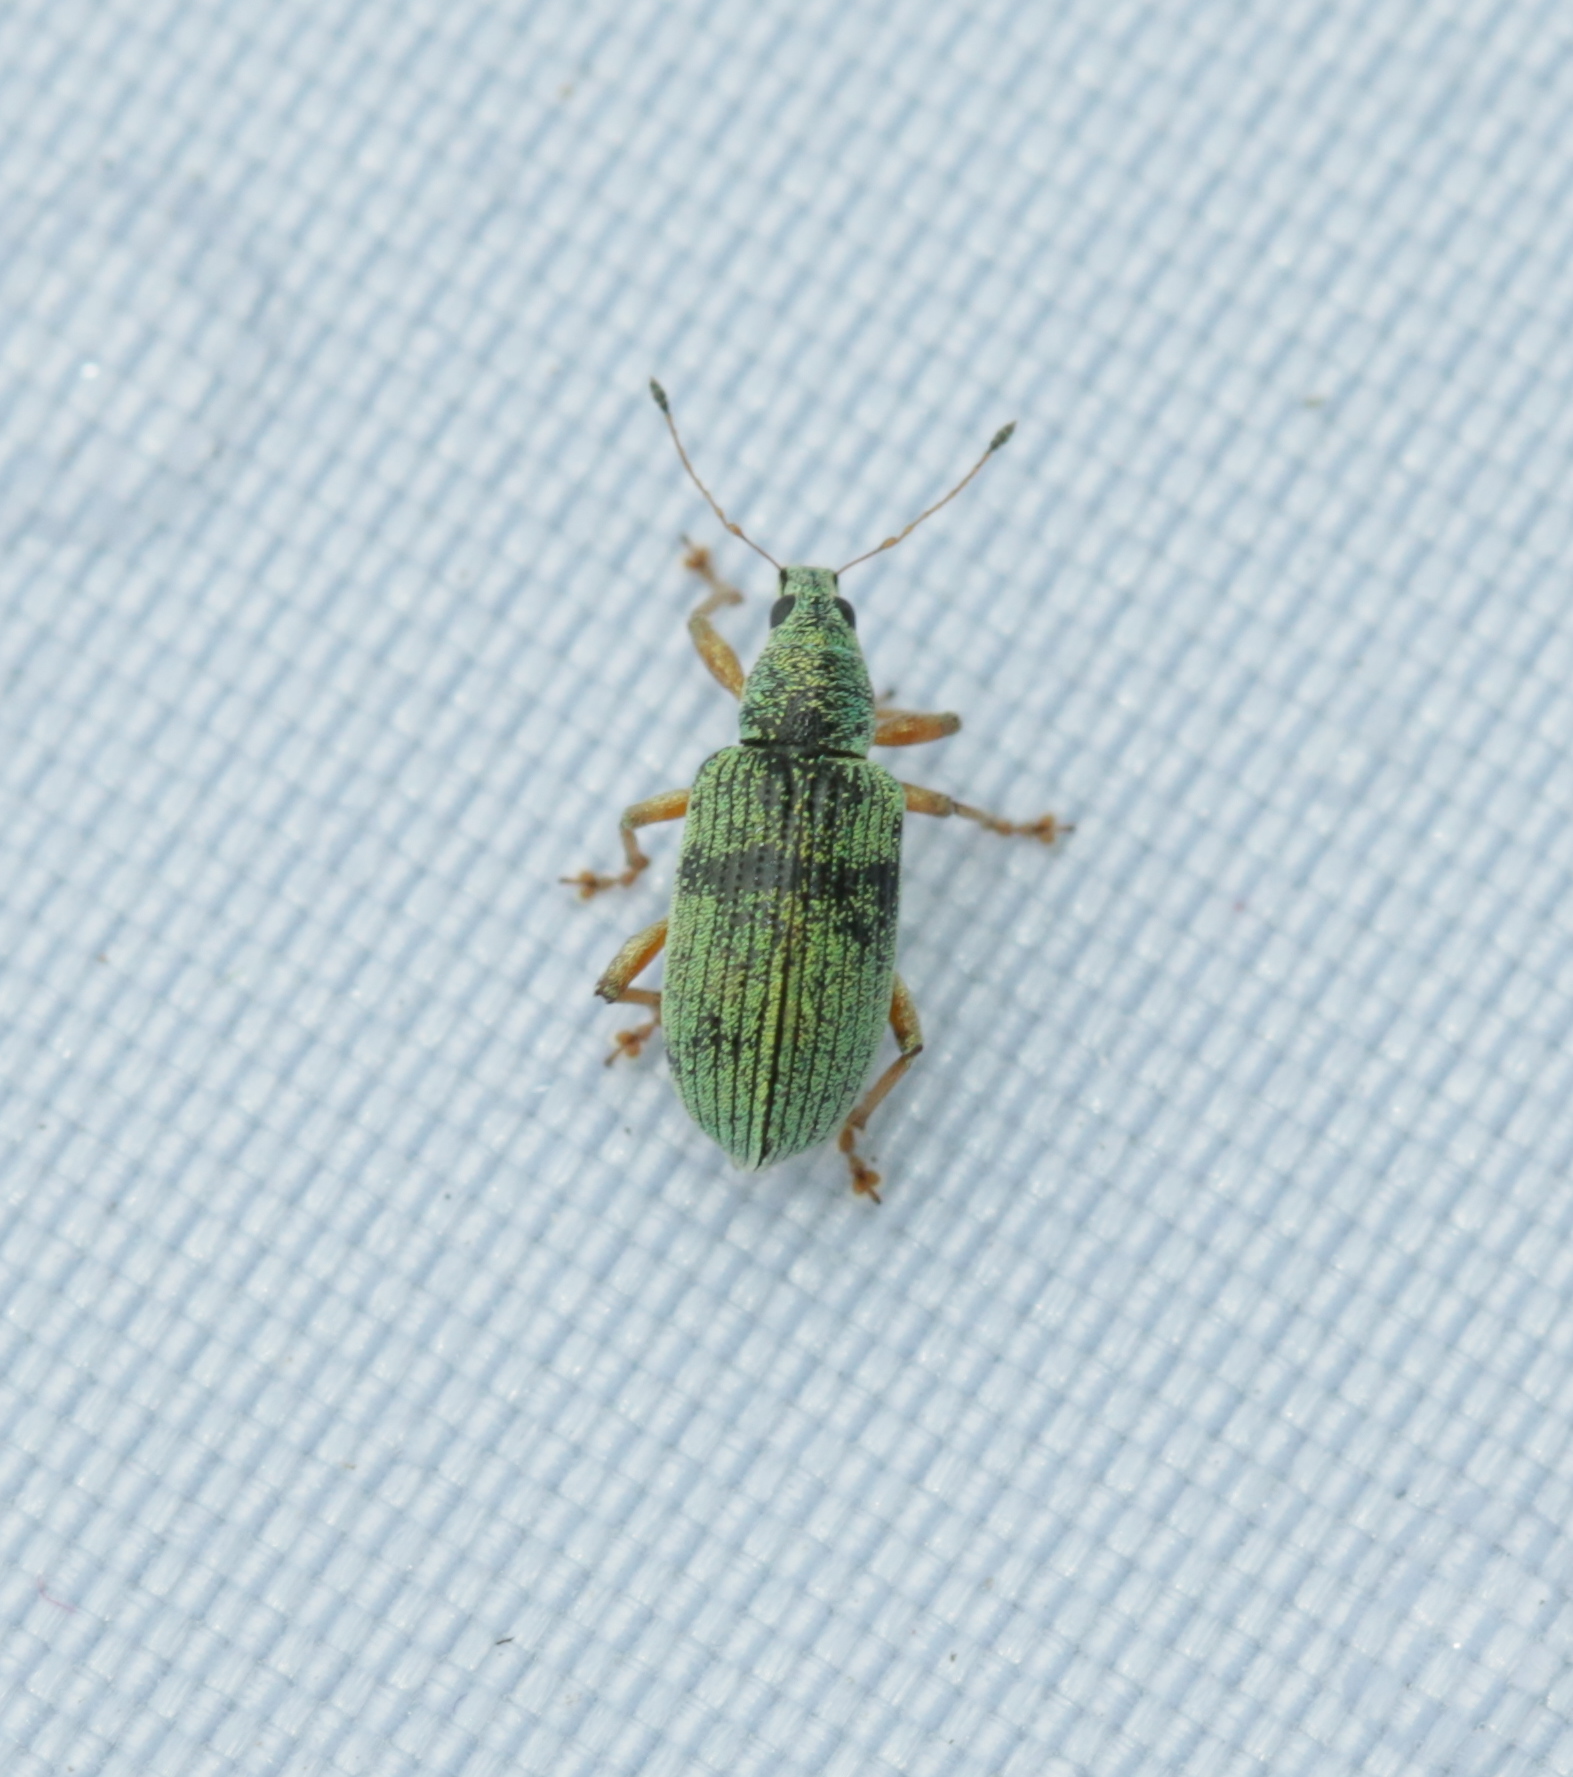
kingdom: Animalia
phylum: Arthropoda
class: Insecta
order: Coleoptera
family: Curculionidae
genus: Polydrusus
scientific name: Polydrusus formosus
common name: Weevil
